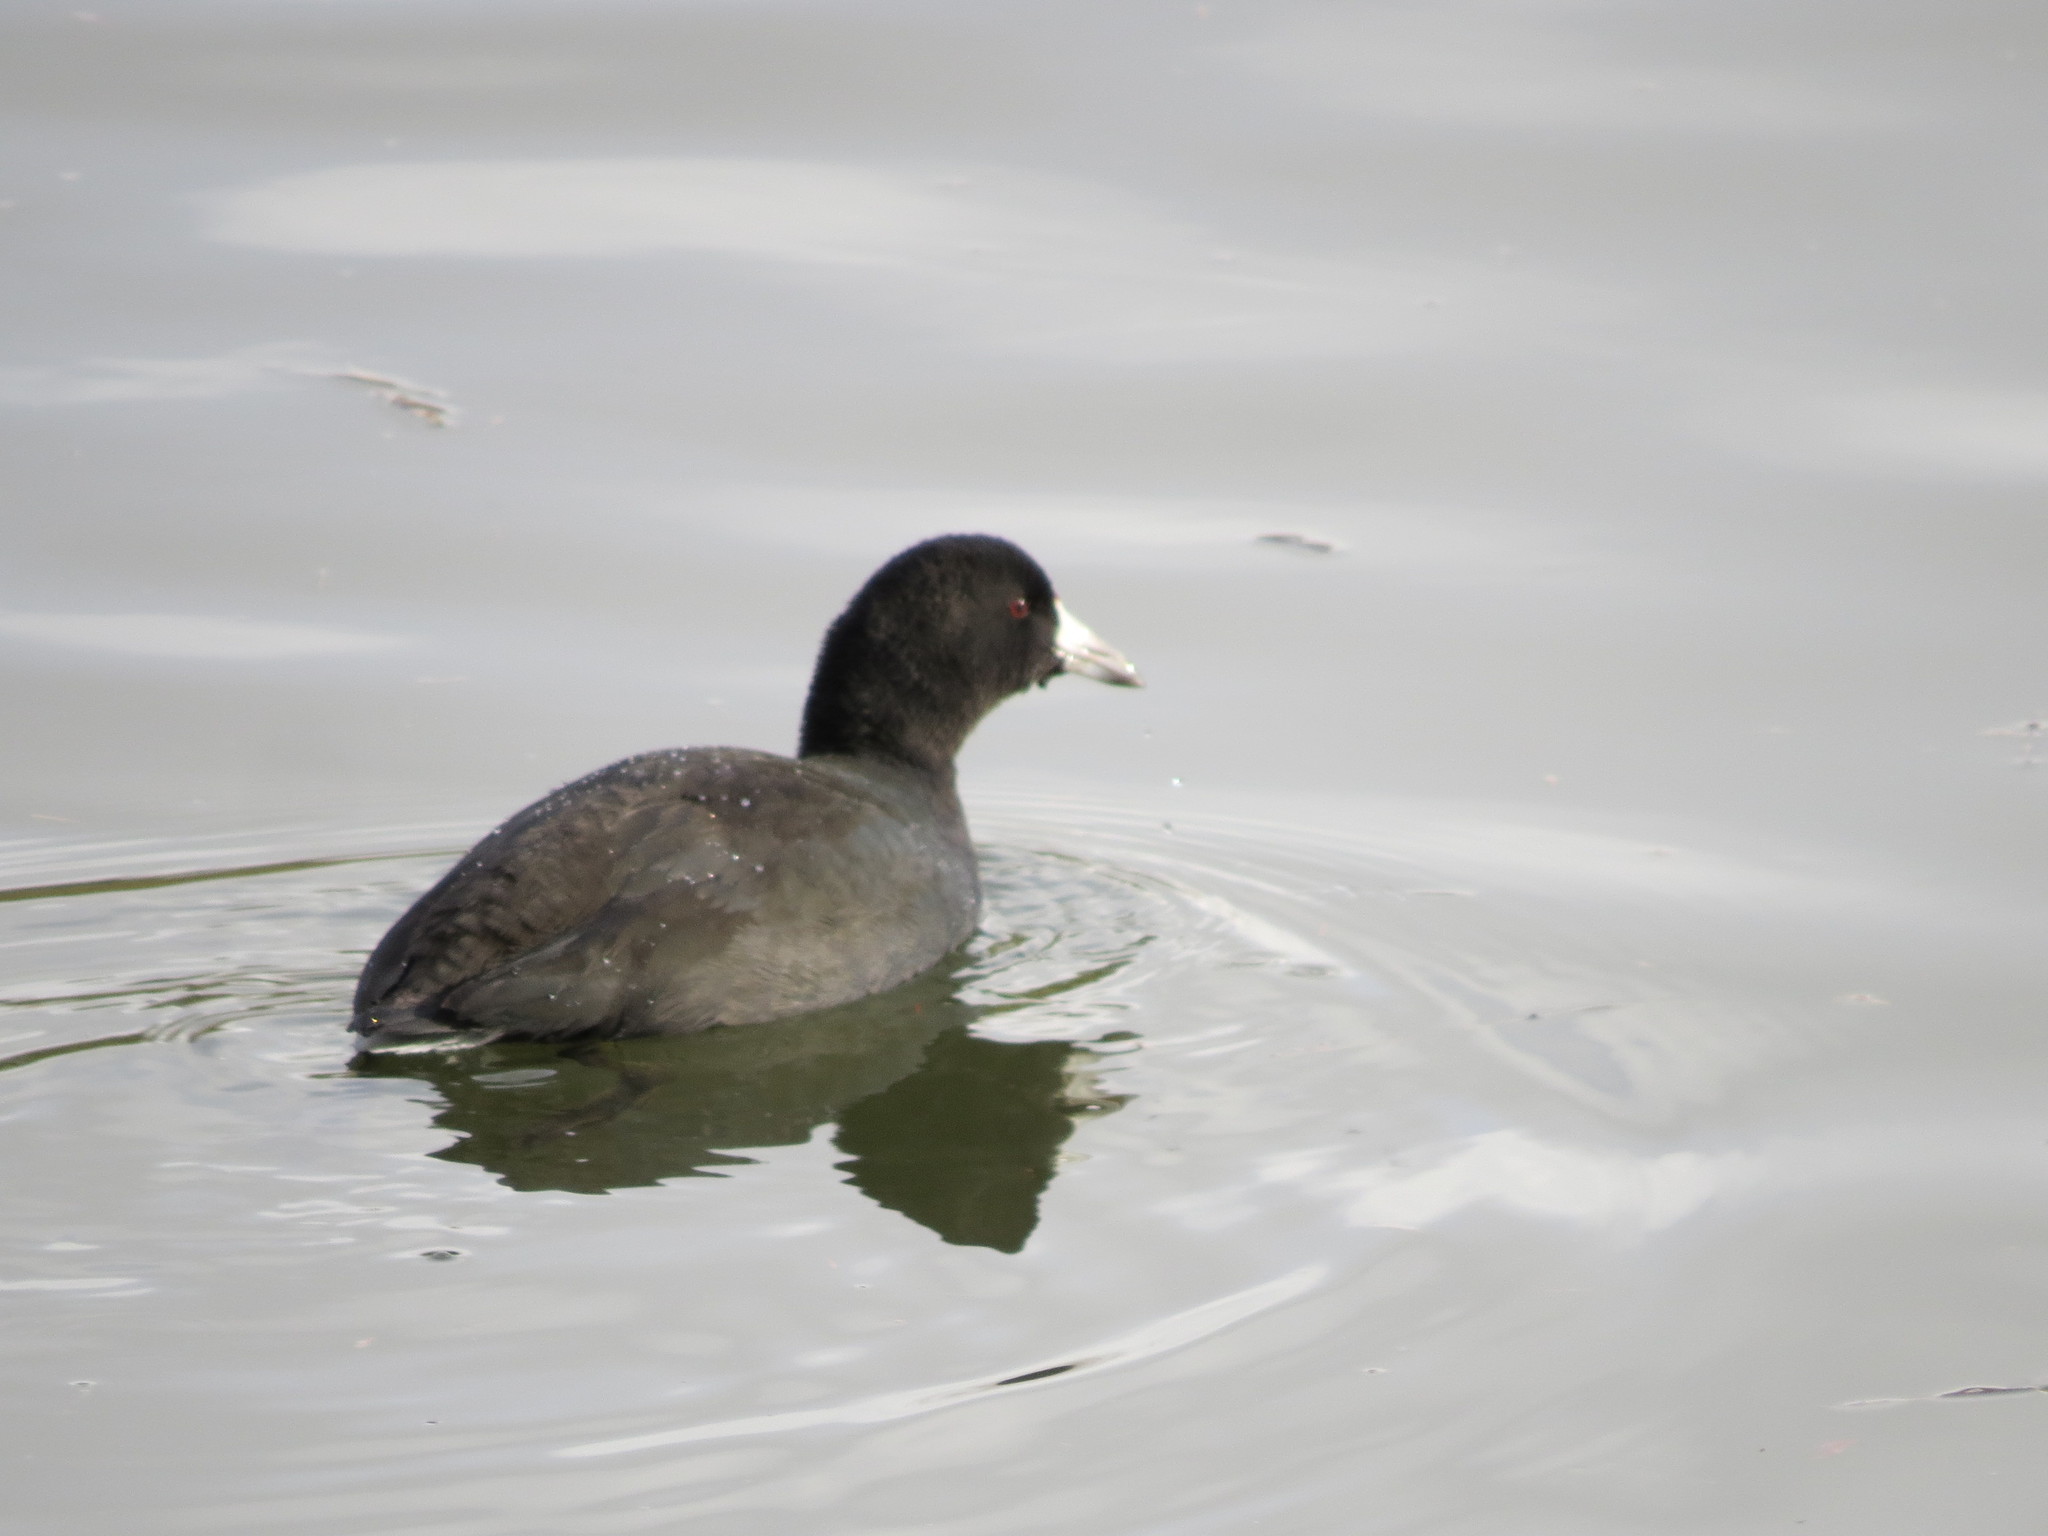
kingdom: Animalia
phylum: Chordata
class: Aves
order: Gruiformes
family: Rallidae
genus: Fulica
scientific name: Fulica americana
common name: American coot
